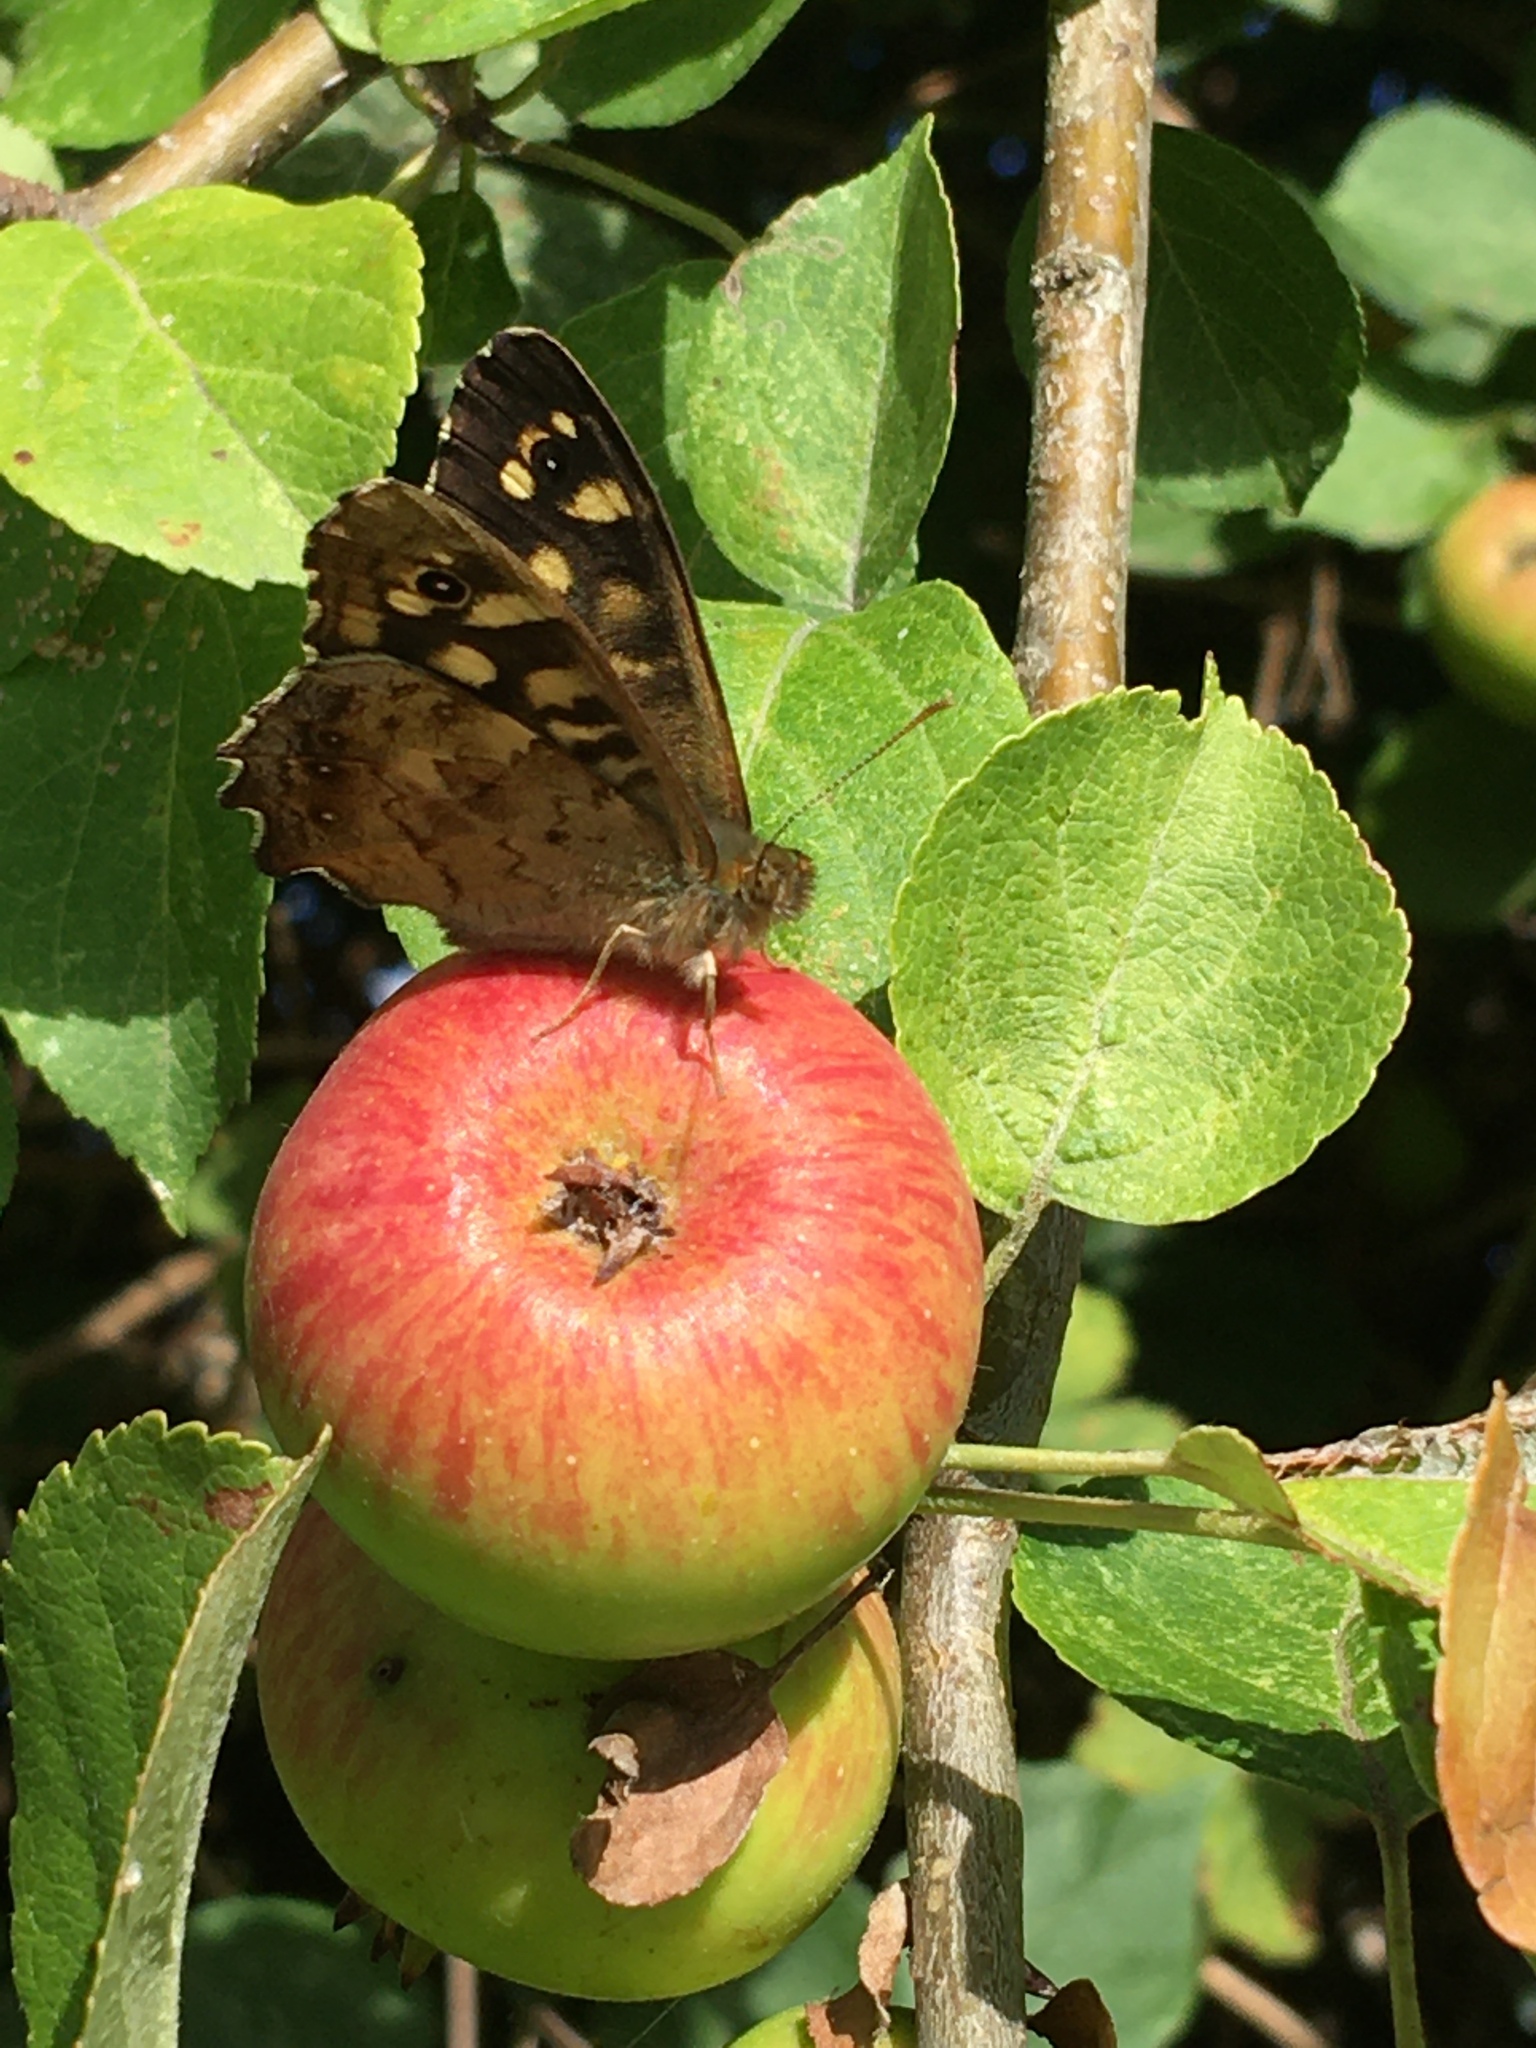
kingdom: Animalia
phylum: Arthropoda
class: Insecta
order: Lepidoptera
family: Nymphalidae
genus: Pararge
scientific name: Pararge aegeria
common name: Speckled wood
